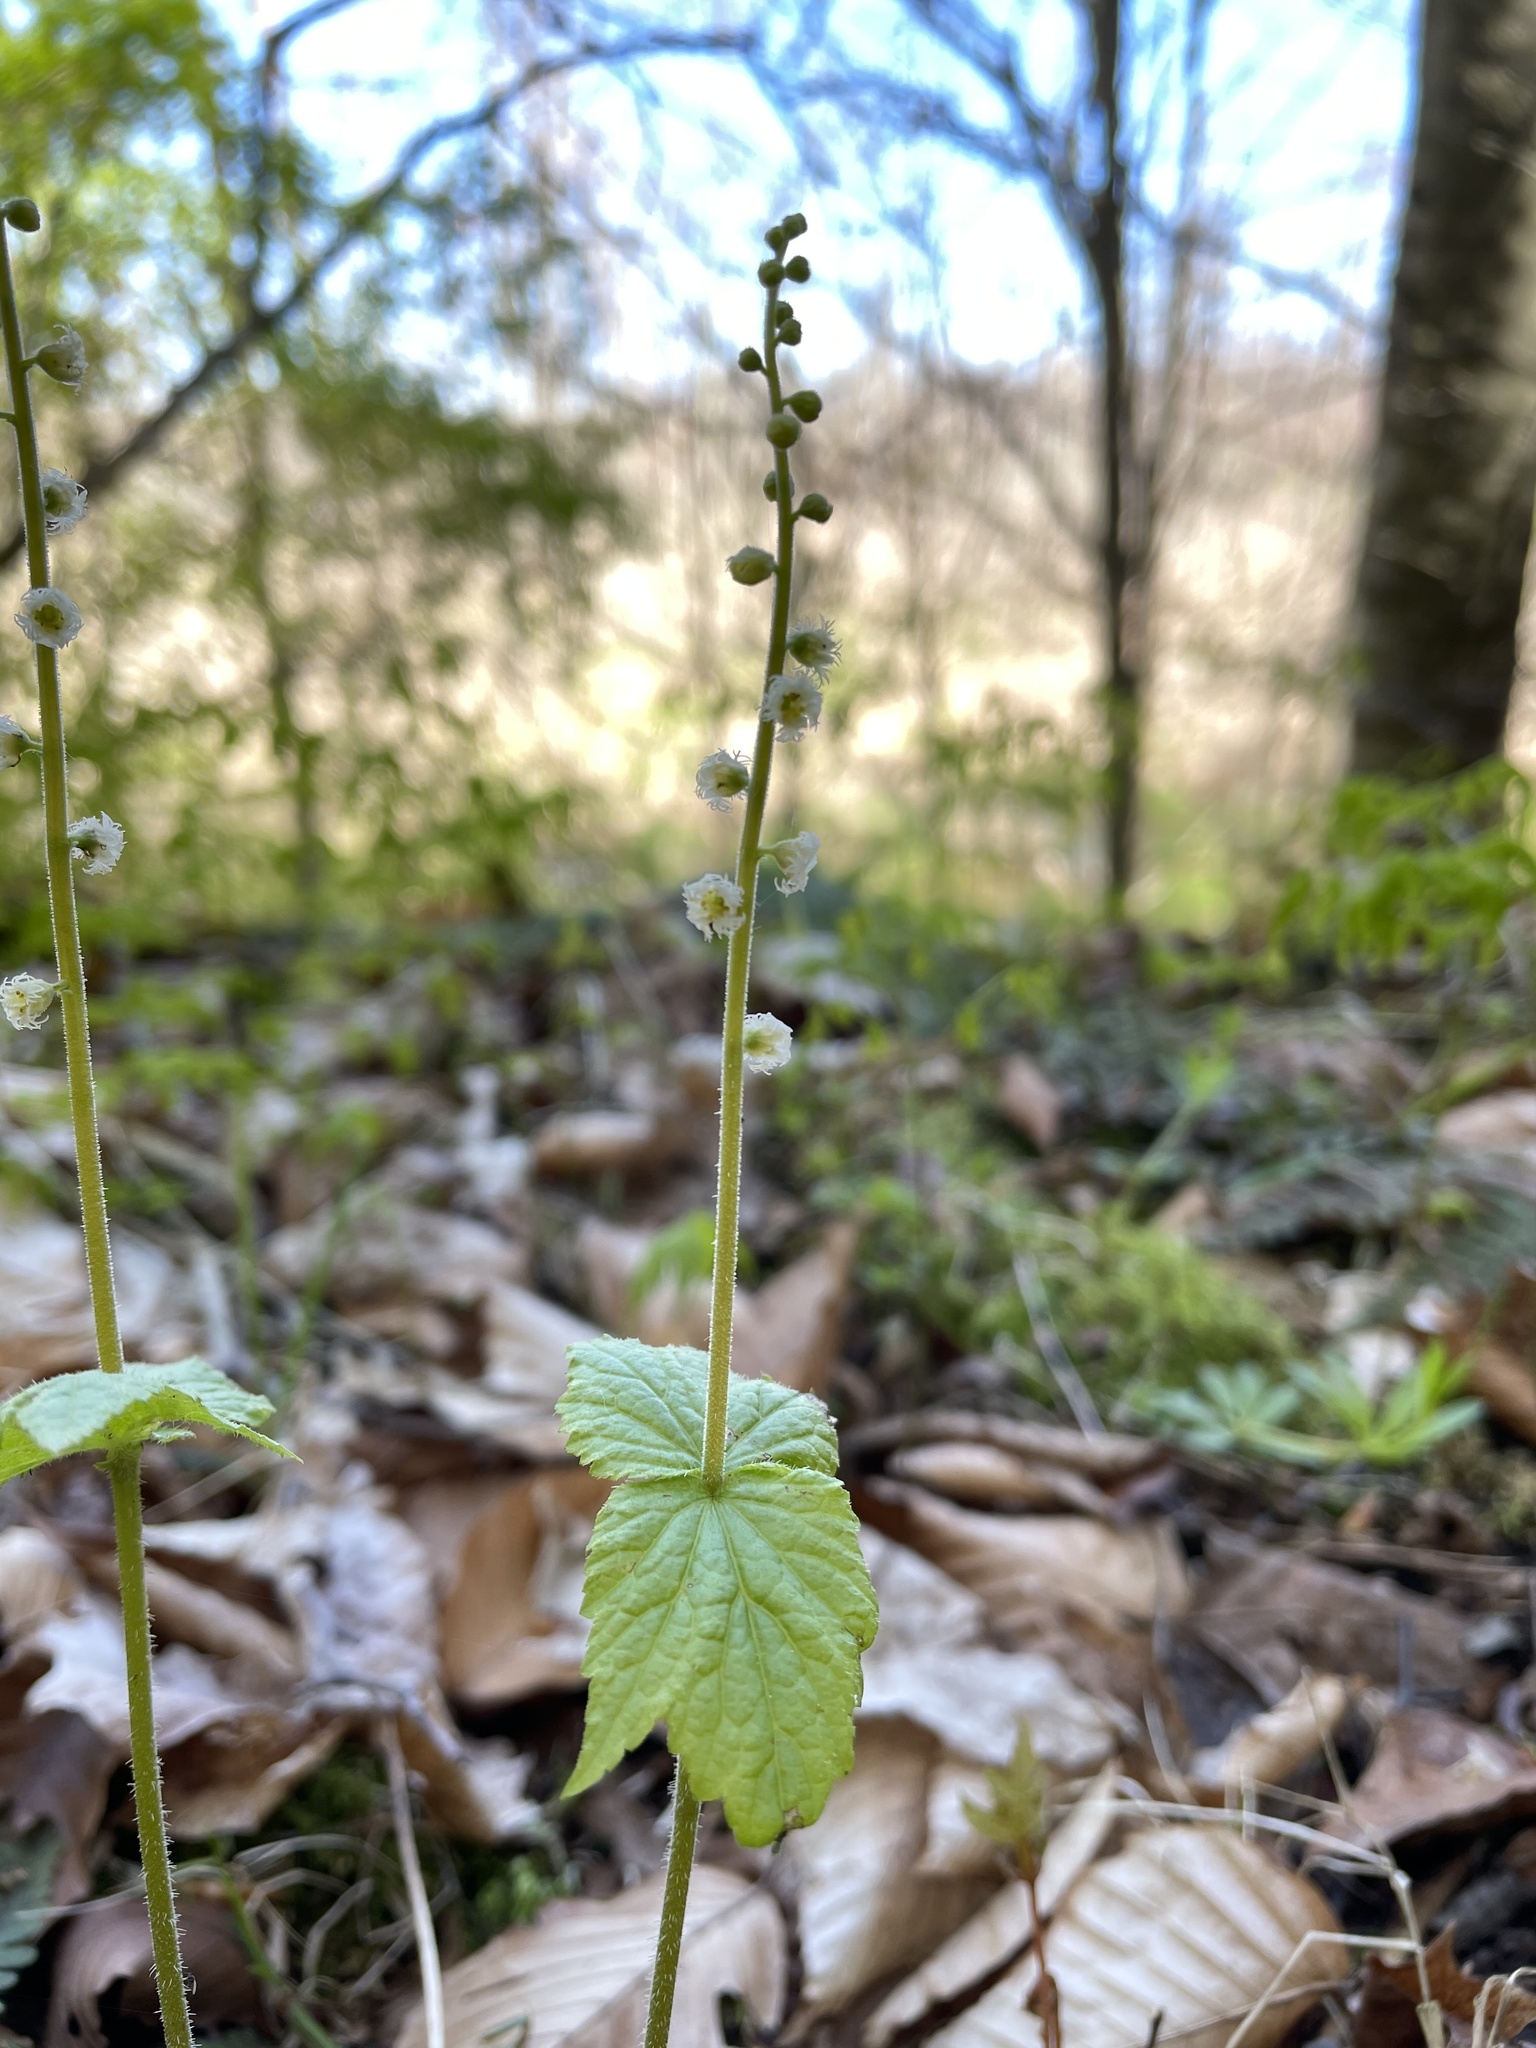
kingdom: Plantae
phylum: Tracheophyta
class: Magnoliopsida
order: Saxifragales
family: Saxifragaceae
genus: Mitella
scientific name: Mitella diphylla
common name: Coolwort
